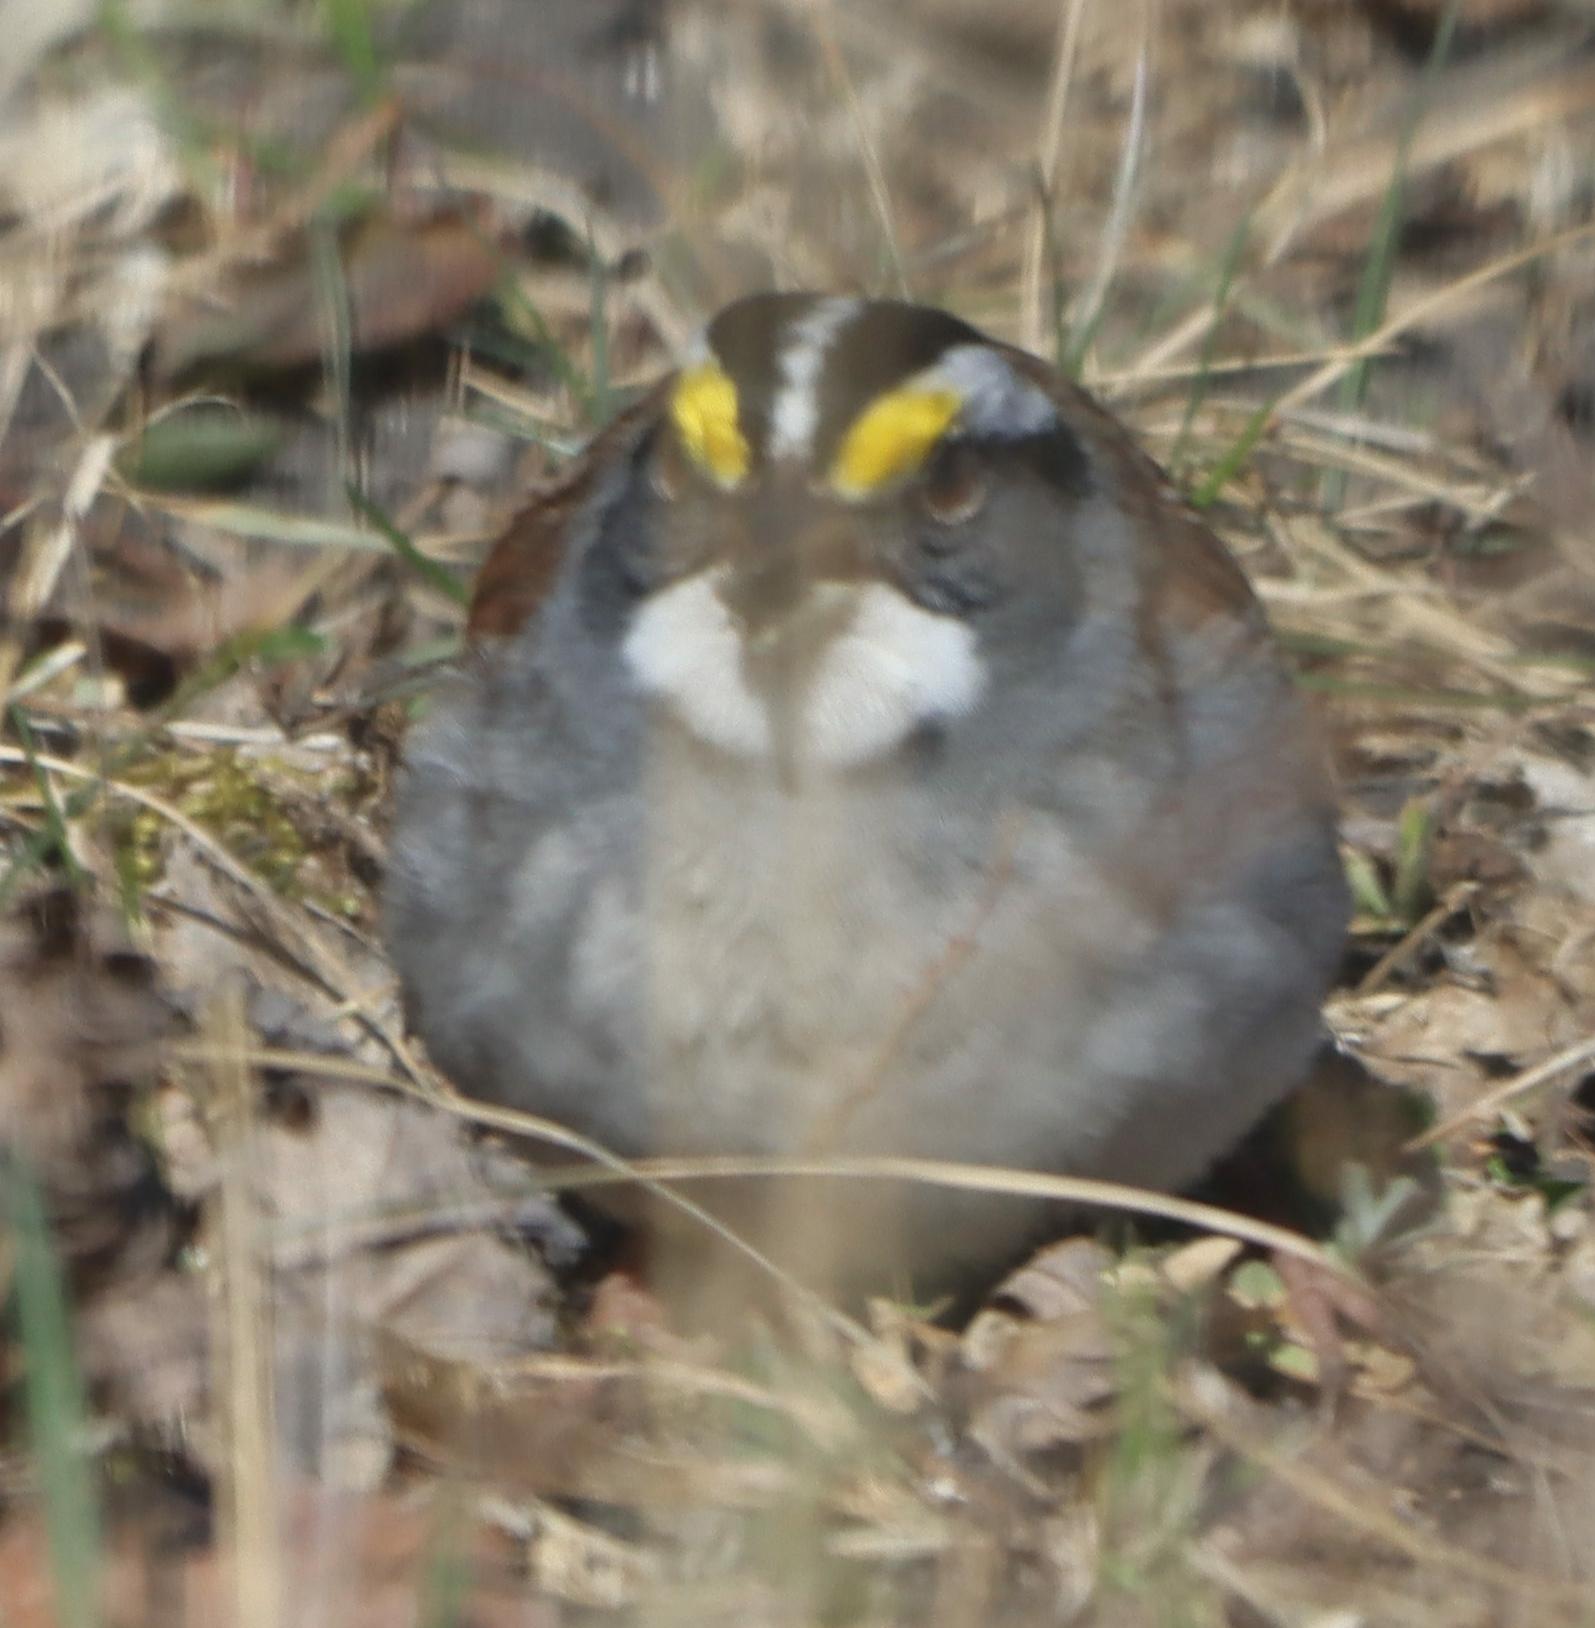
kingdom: Animalia
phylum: Chordata
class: Aves
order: Passeriformes
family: Passerellidae
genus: Zonotrichia
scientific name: Zonotrichia albicollis
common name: White-throated sparrow
